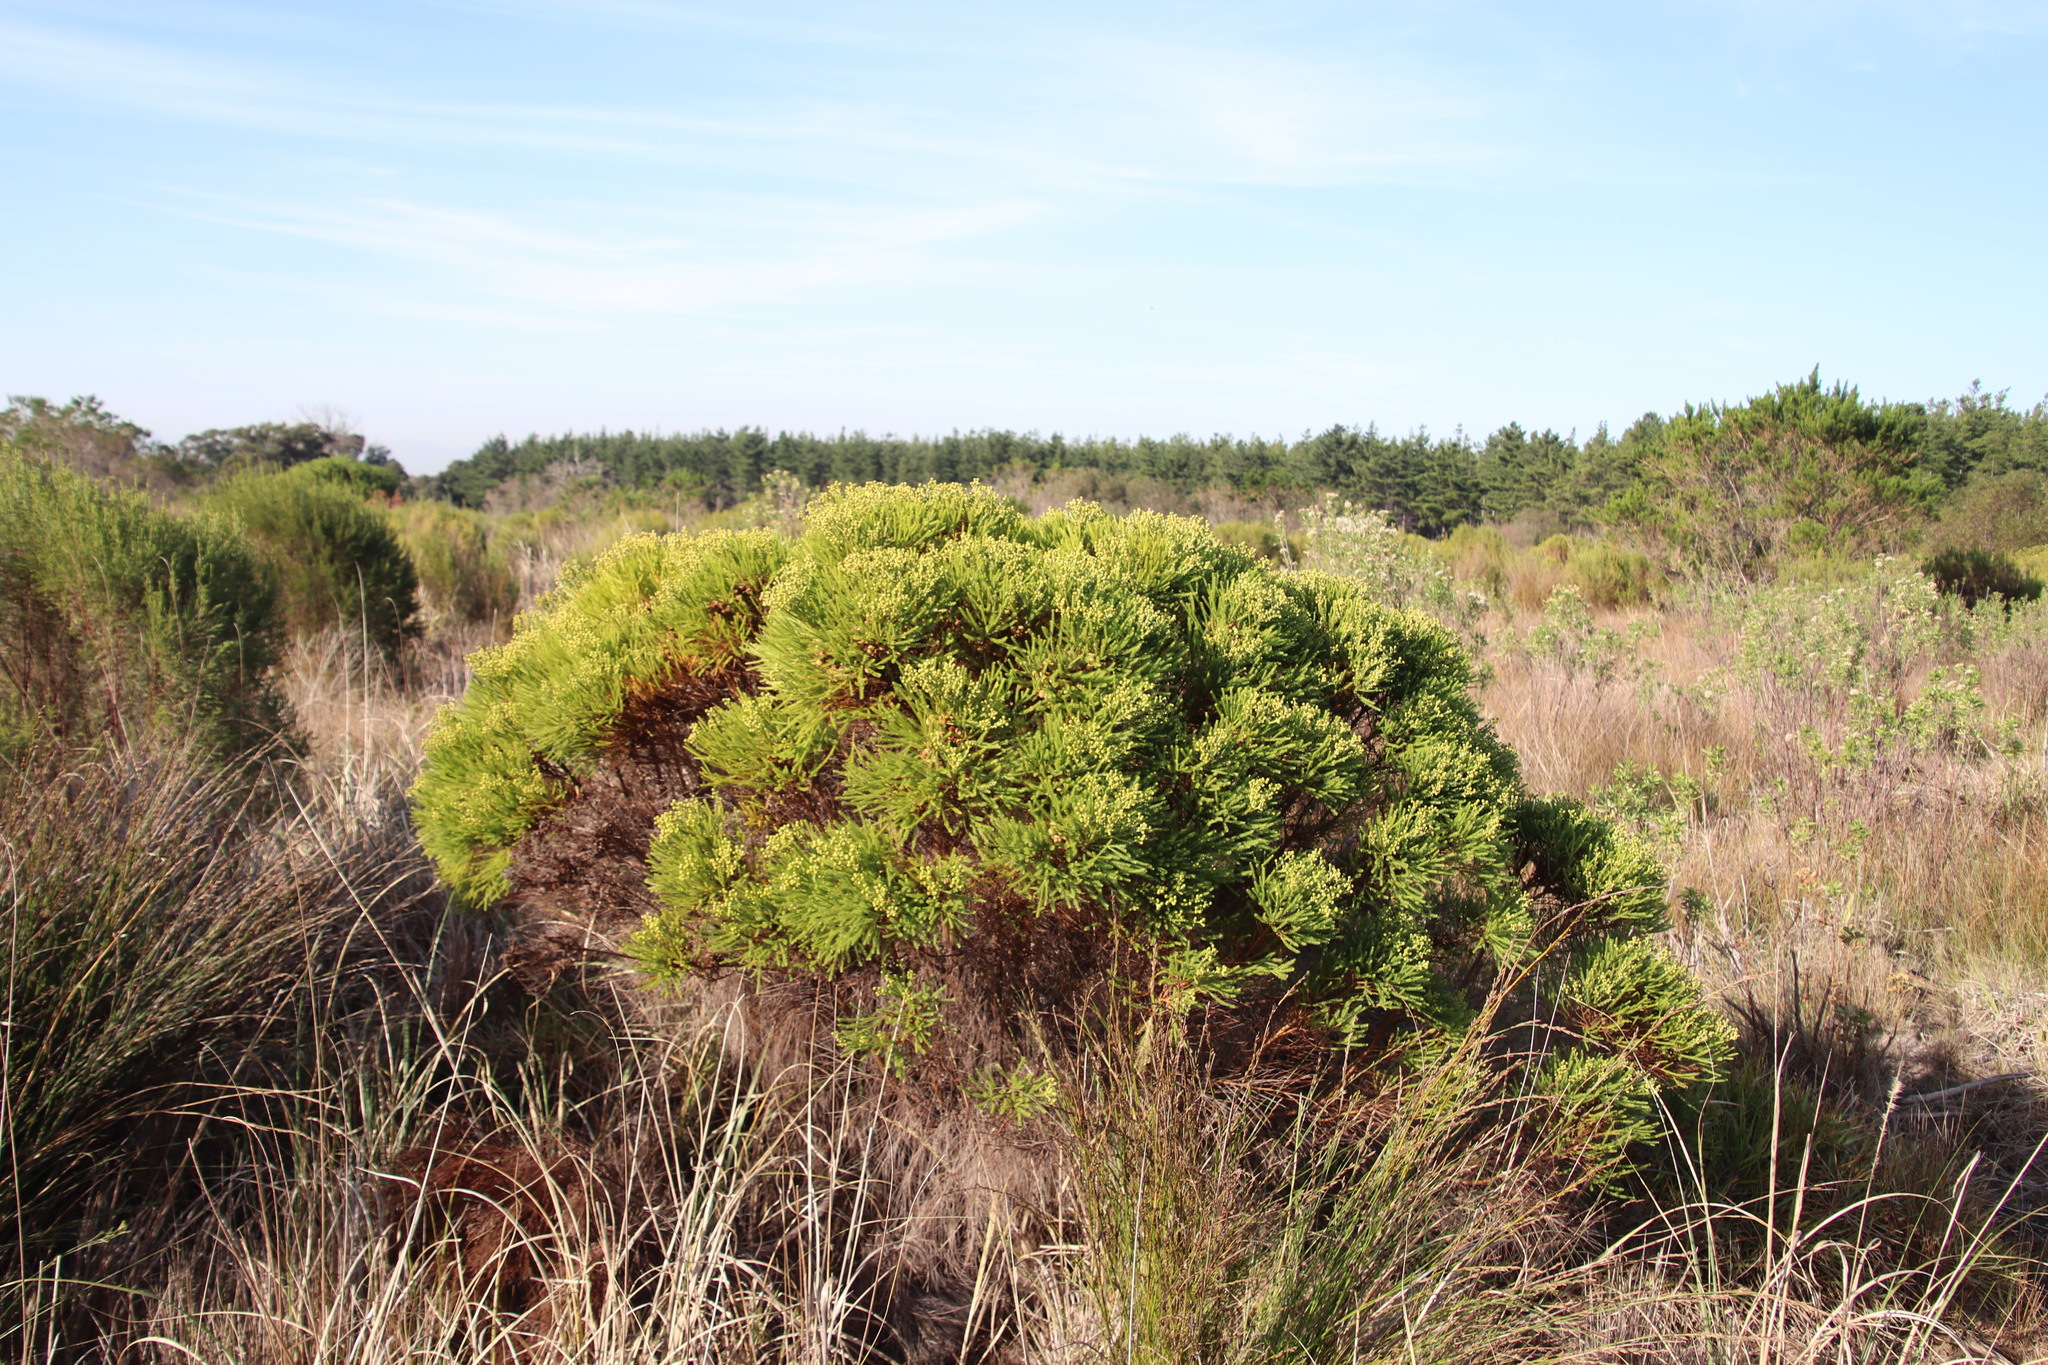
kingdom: Plantae
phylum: Tracheophyta
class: Magnoliopsida
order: Bruniales
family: Bruniaceae
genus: Berzelia
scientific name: Berzelia lanuginosa
